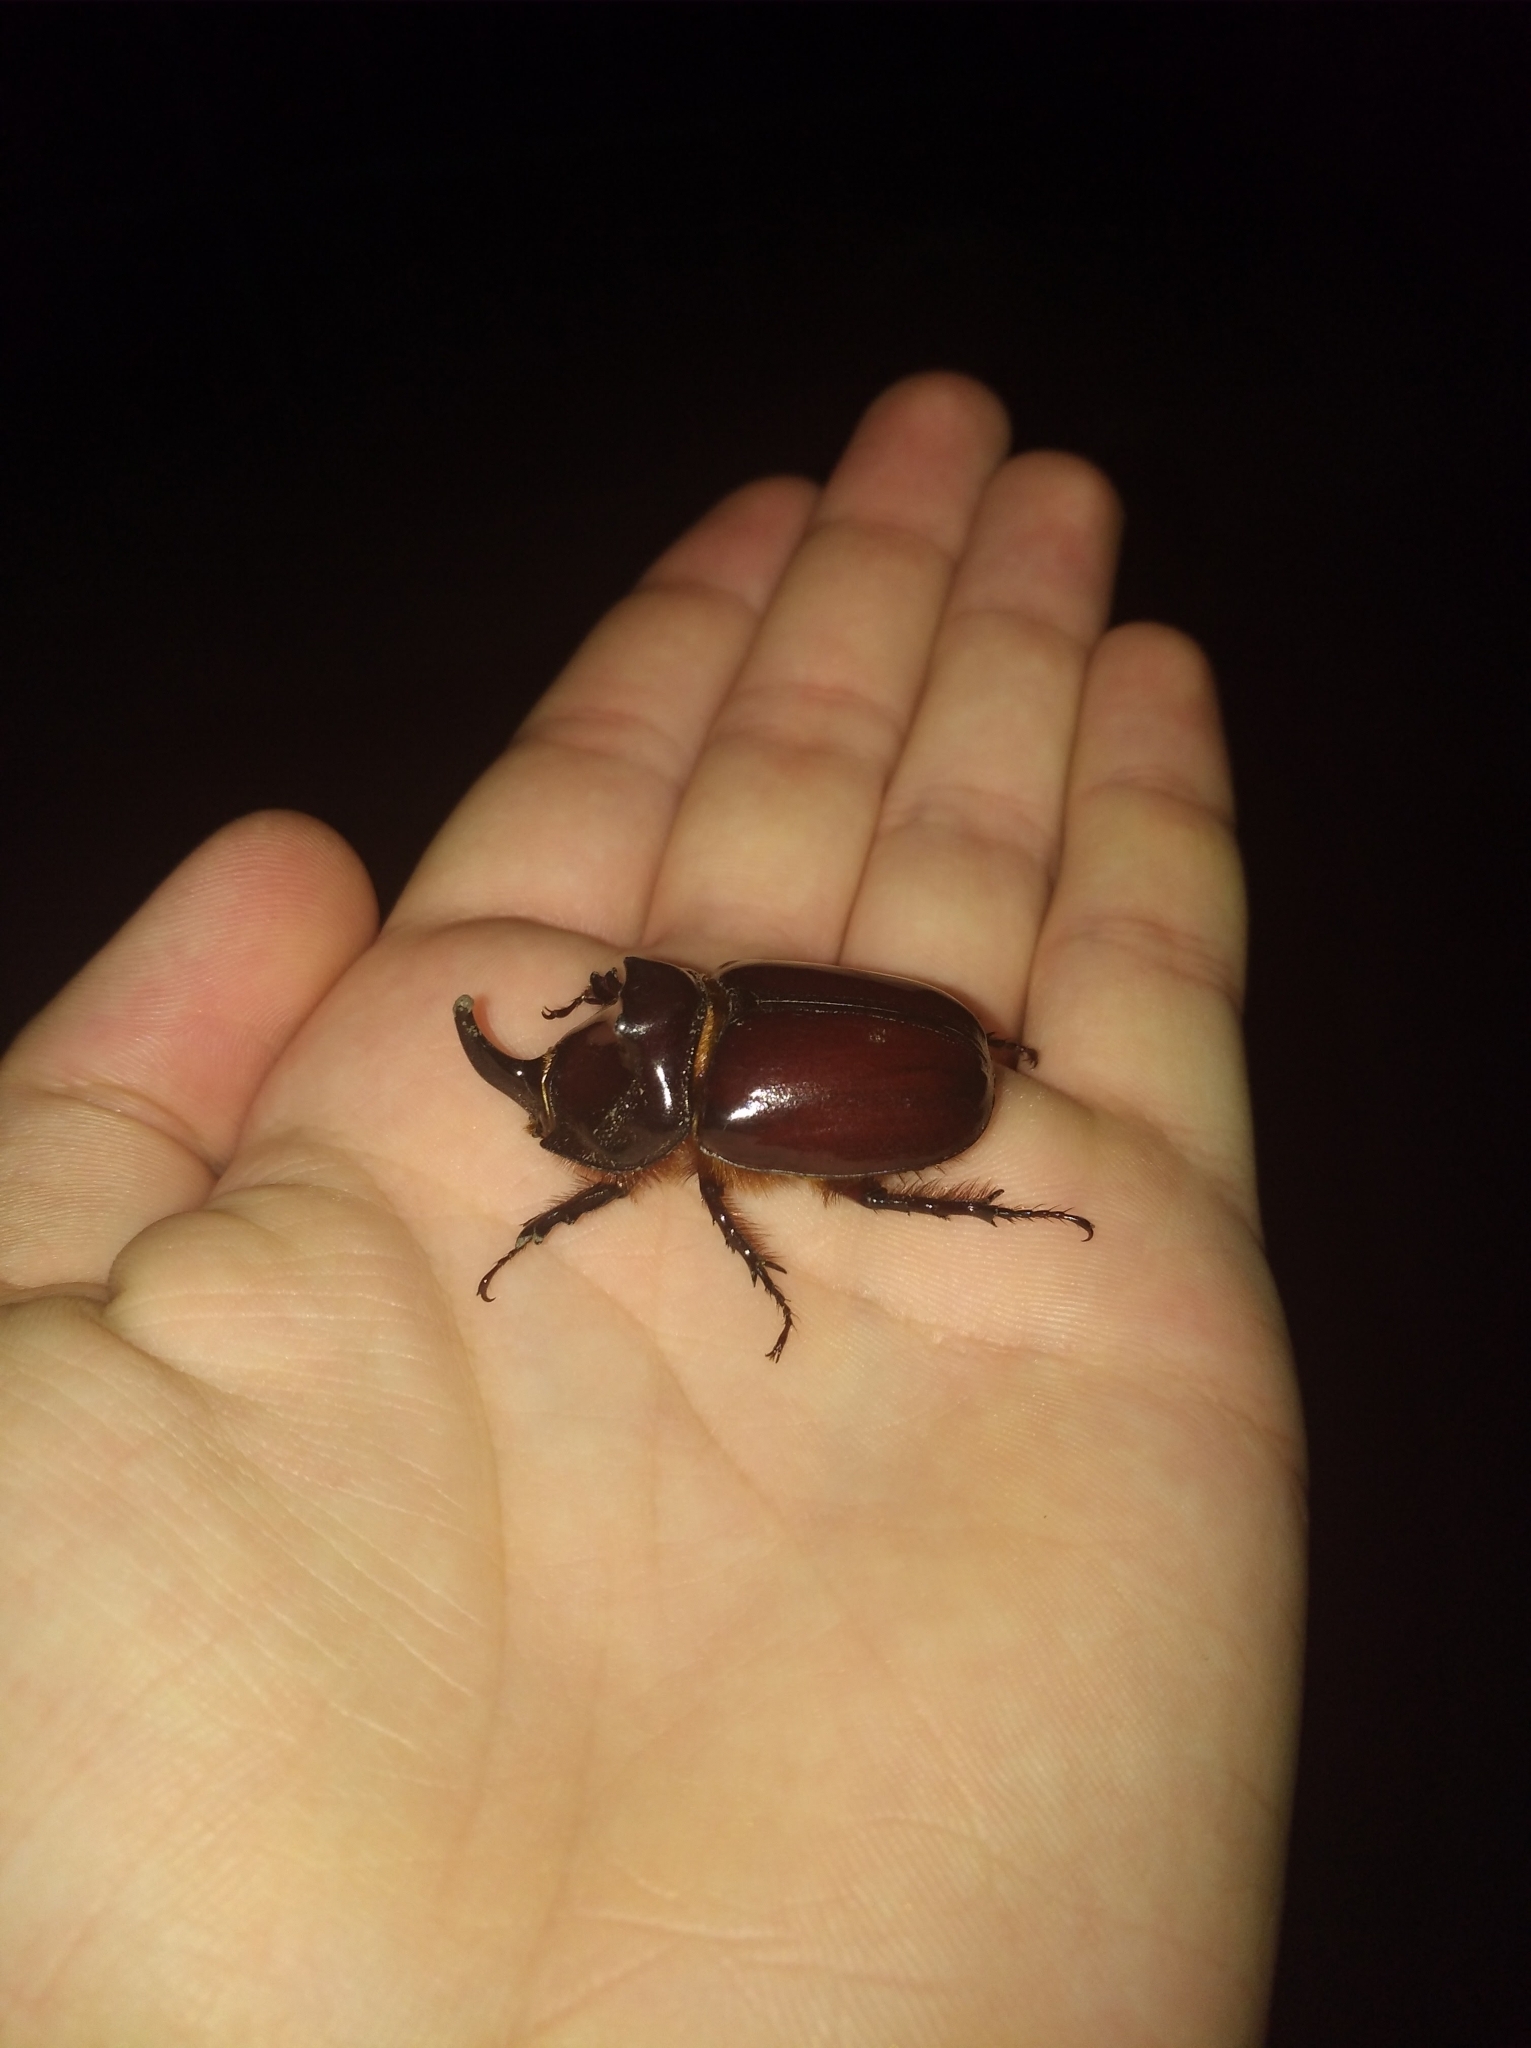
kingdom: Animalia
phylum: Arthropoda
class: Insecta
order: Coleoptera
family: Scarabaeidae
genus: Oryctes
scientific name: Oryctes nasicornis
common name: European rhinoceros beetle
